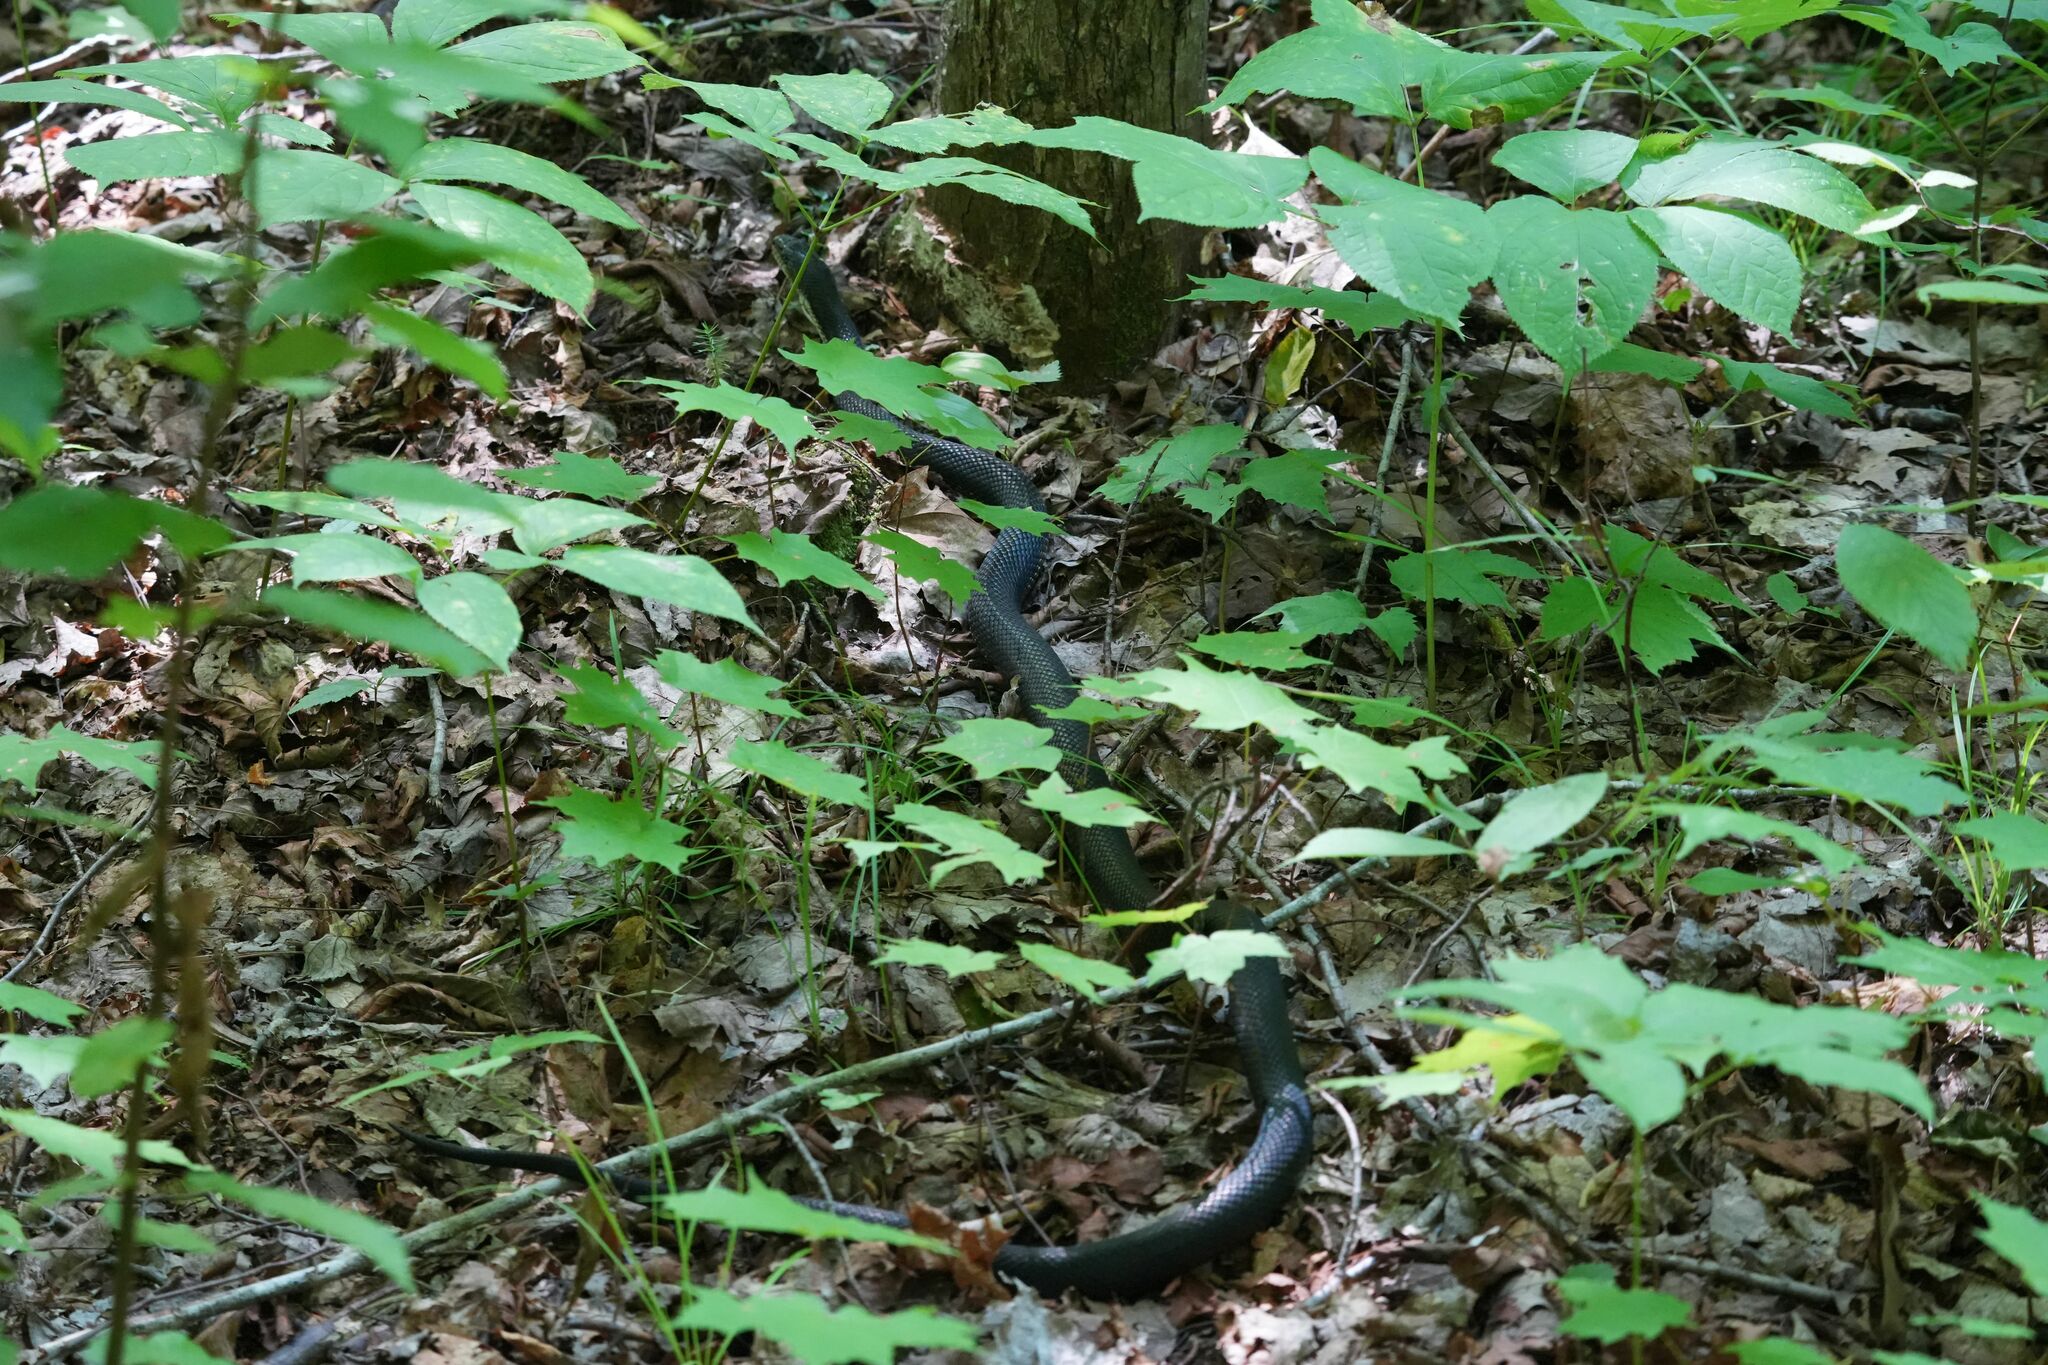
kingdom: Animalia
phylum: Chordata
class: Squamata
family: Colubridae
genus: Pantherophis
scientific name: Pantherophis spiloides
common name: Gray rat snake
